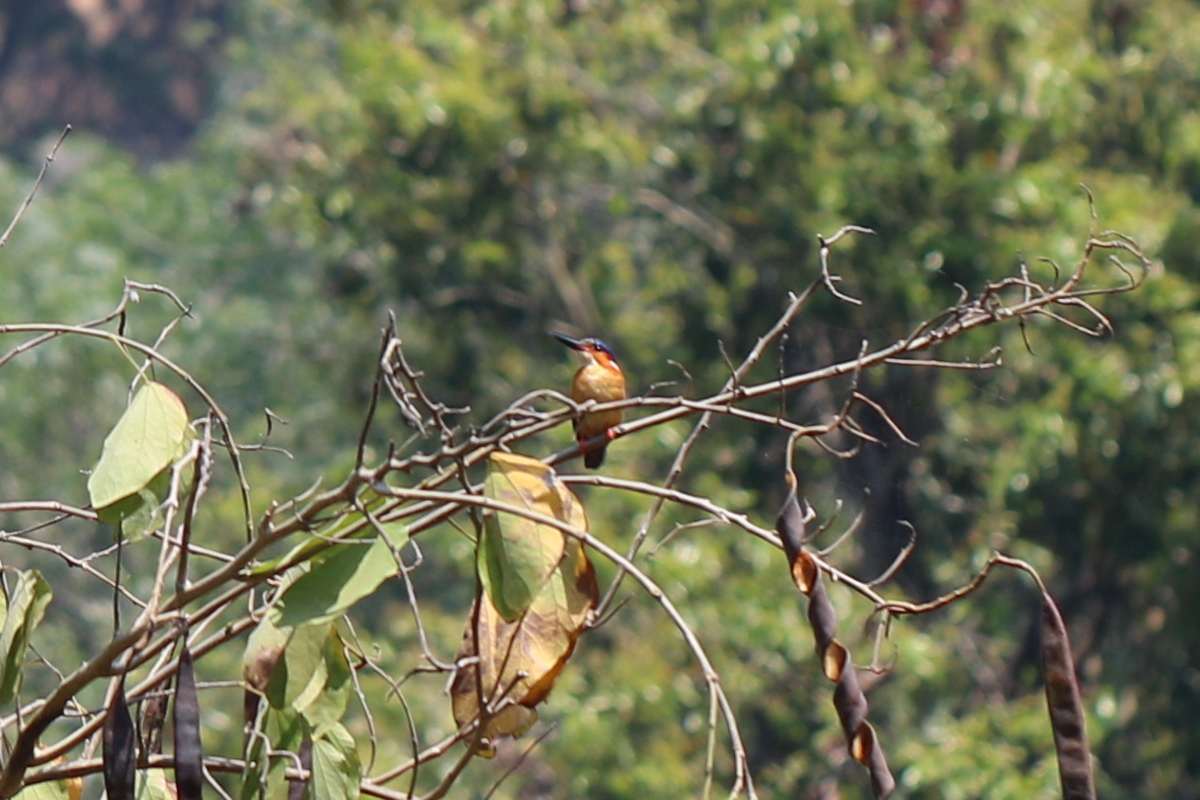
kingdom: Animalia
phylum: Chordata
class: Aves
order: Coraciiformes
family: Alcedinidae
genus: Corythornis
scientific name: Corythornis vintsioides
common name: Malagasy kingfisher
